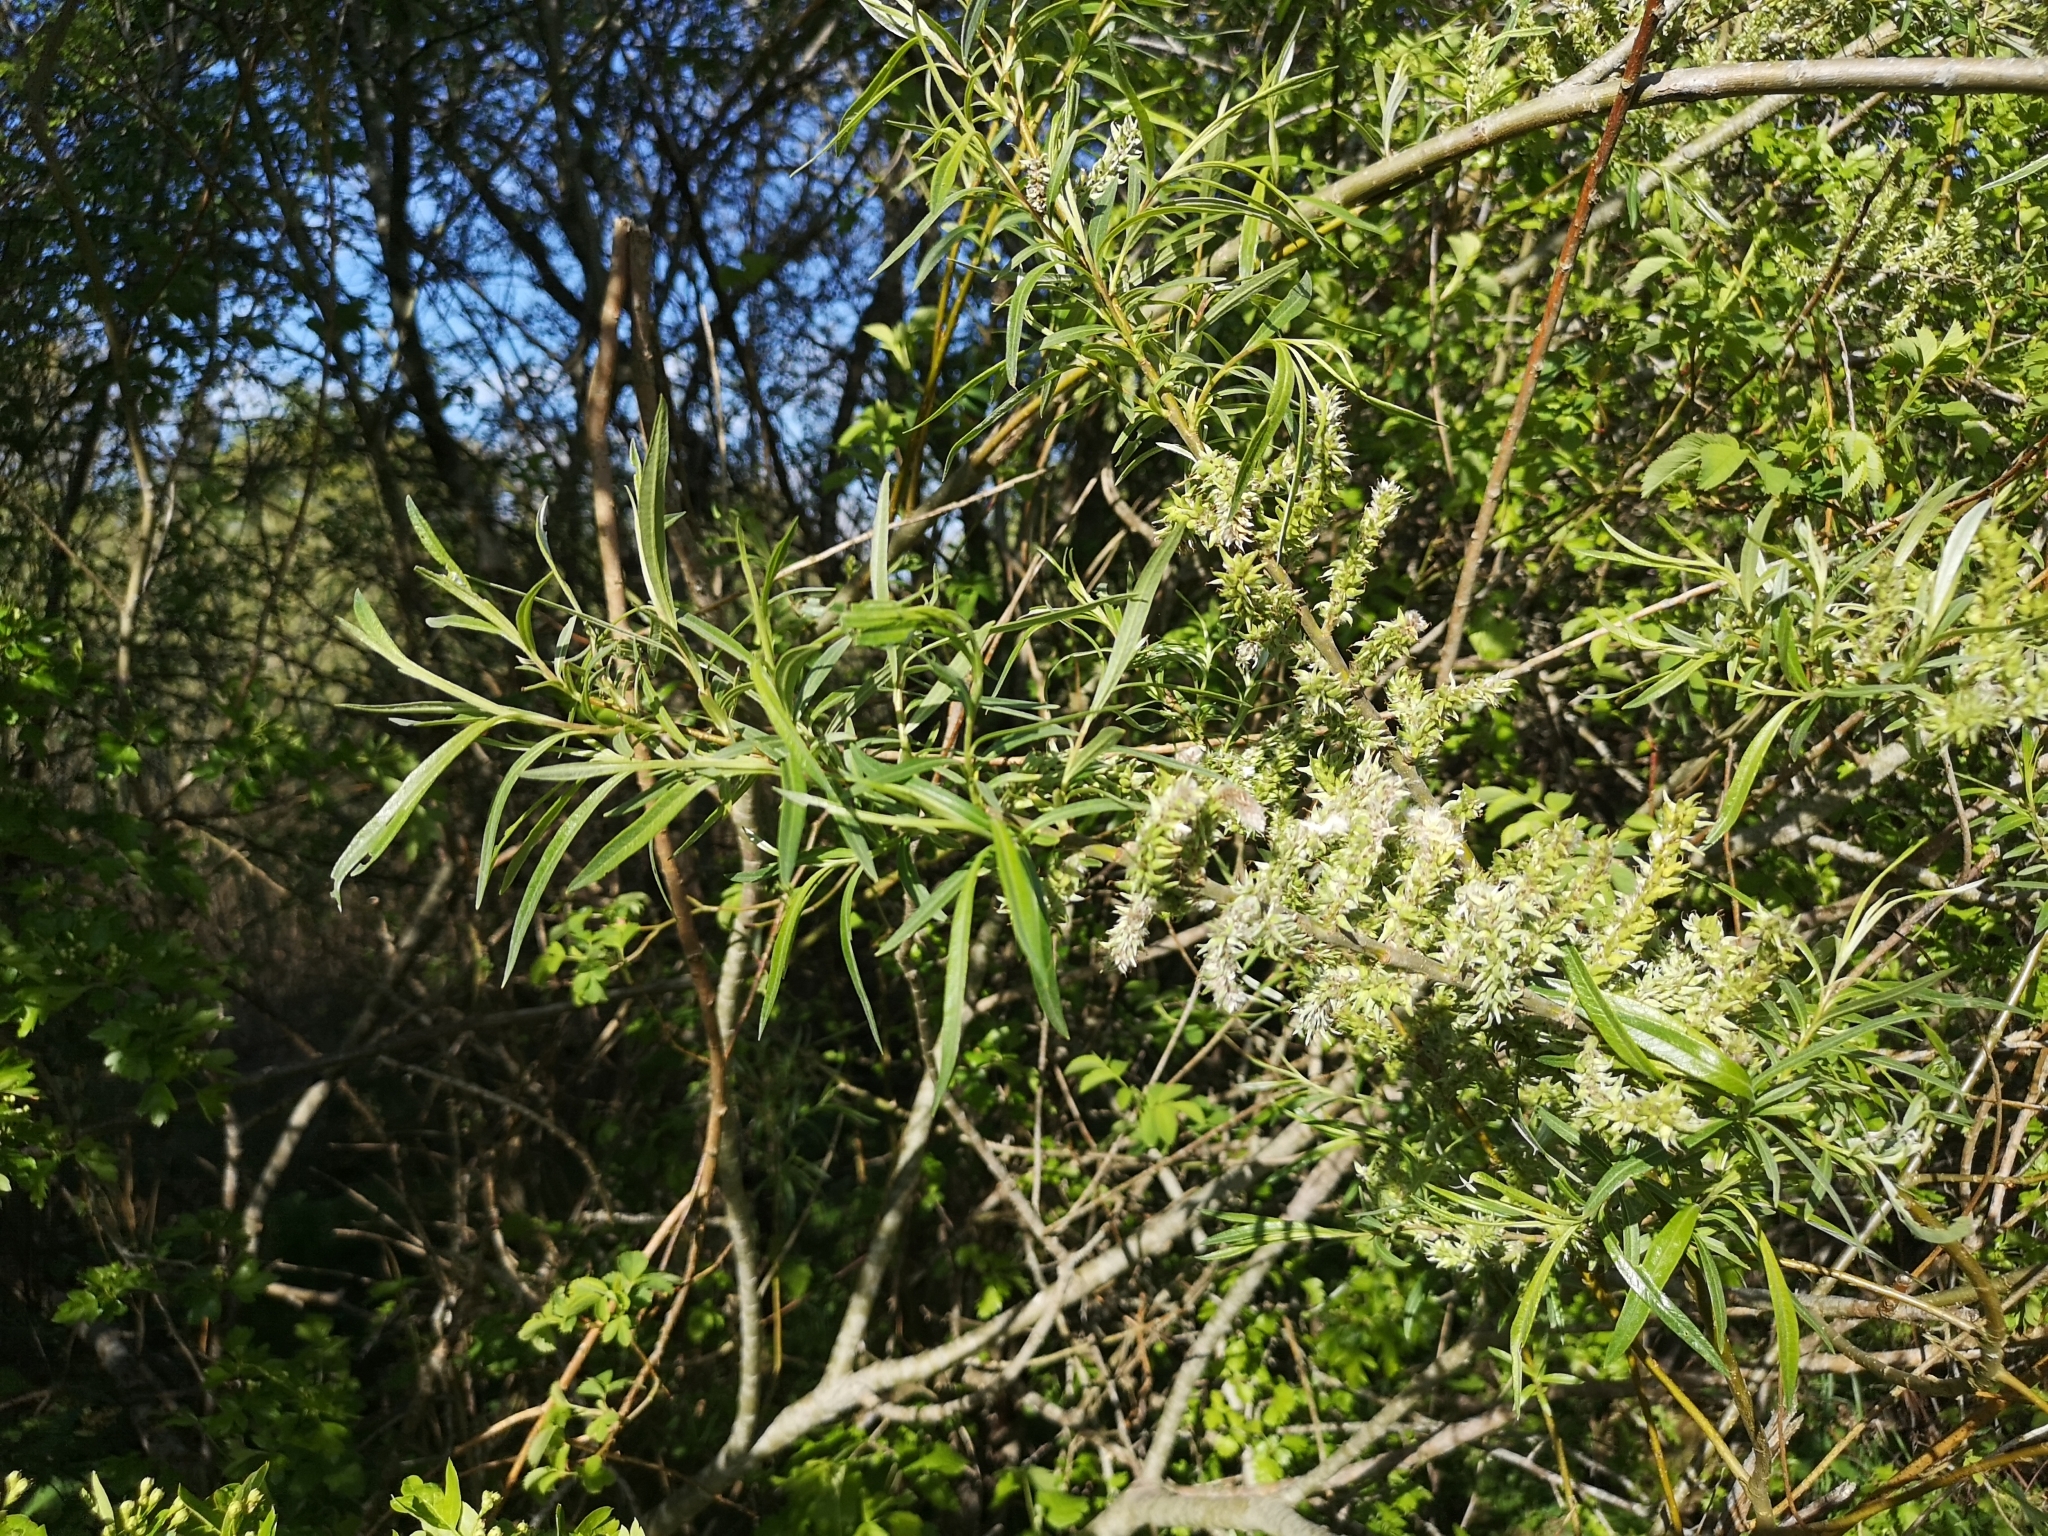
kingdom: Plantae
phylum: Tracheophyta
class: Magnoliopsida
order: Malpighiales
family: Salicaceae
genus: Salix
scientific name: Salix viminalis
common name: Osier
